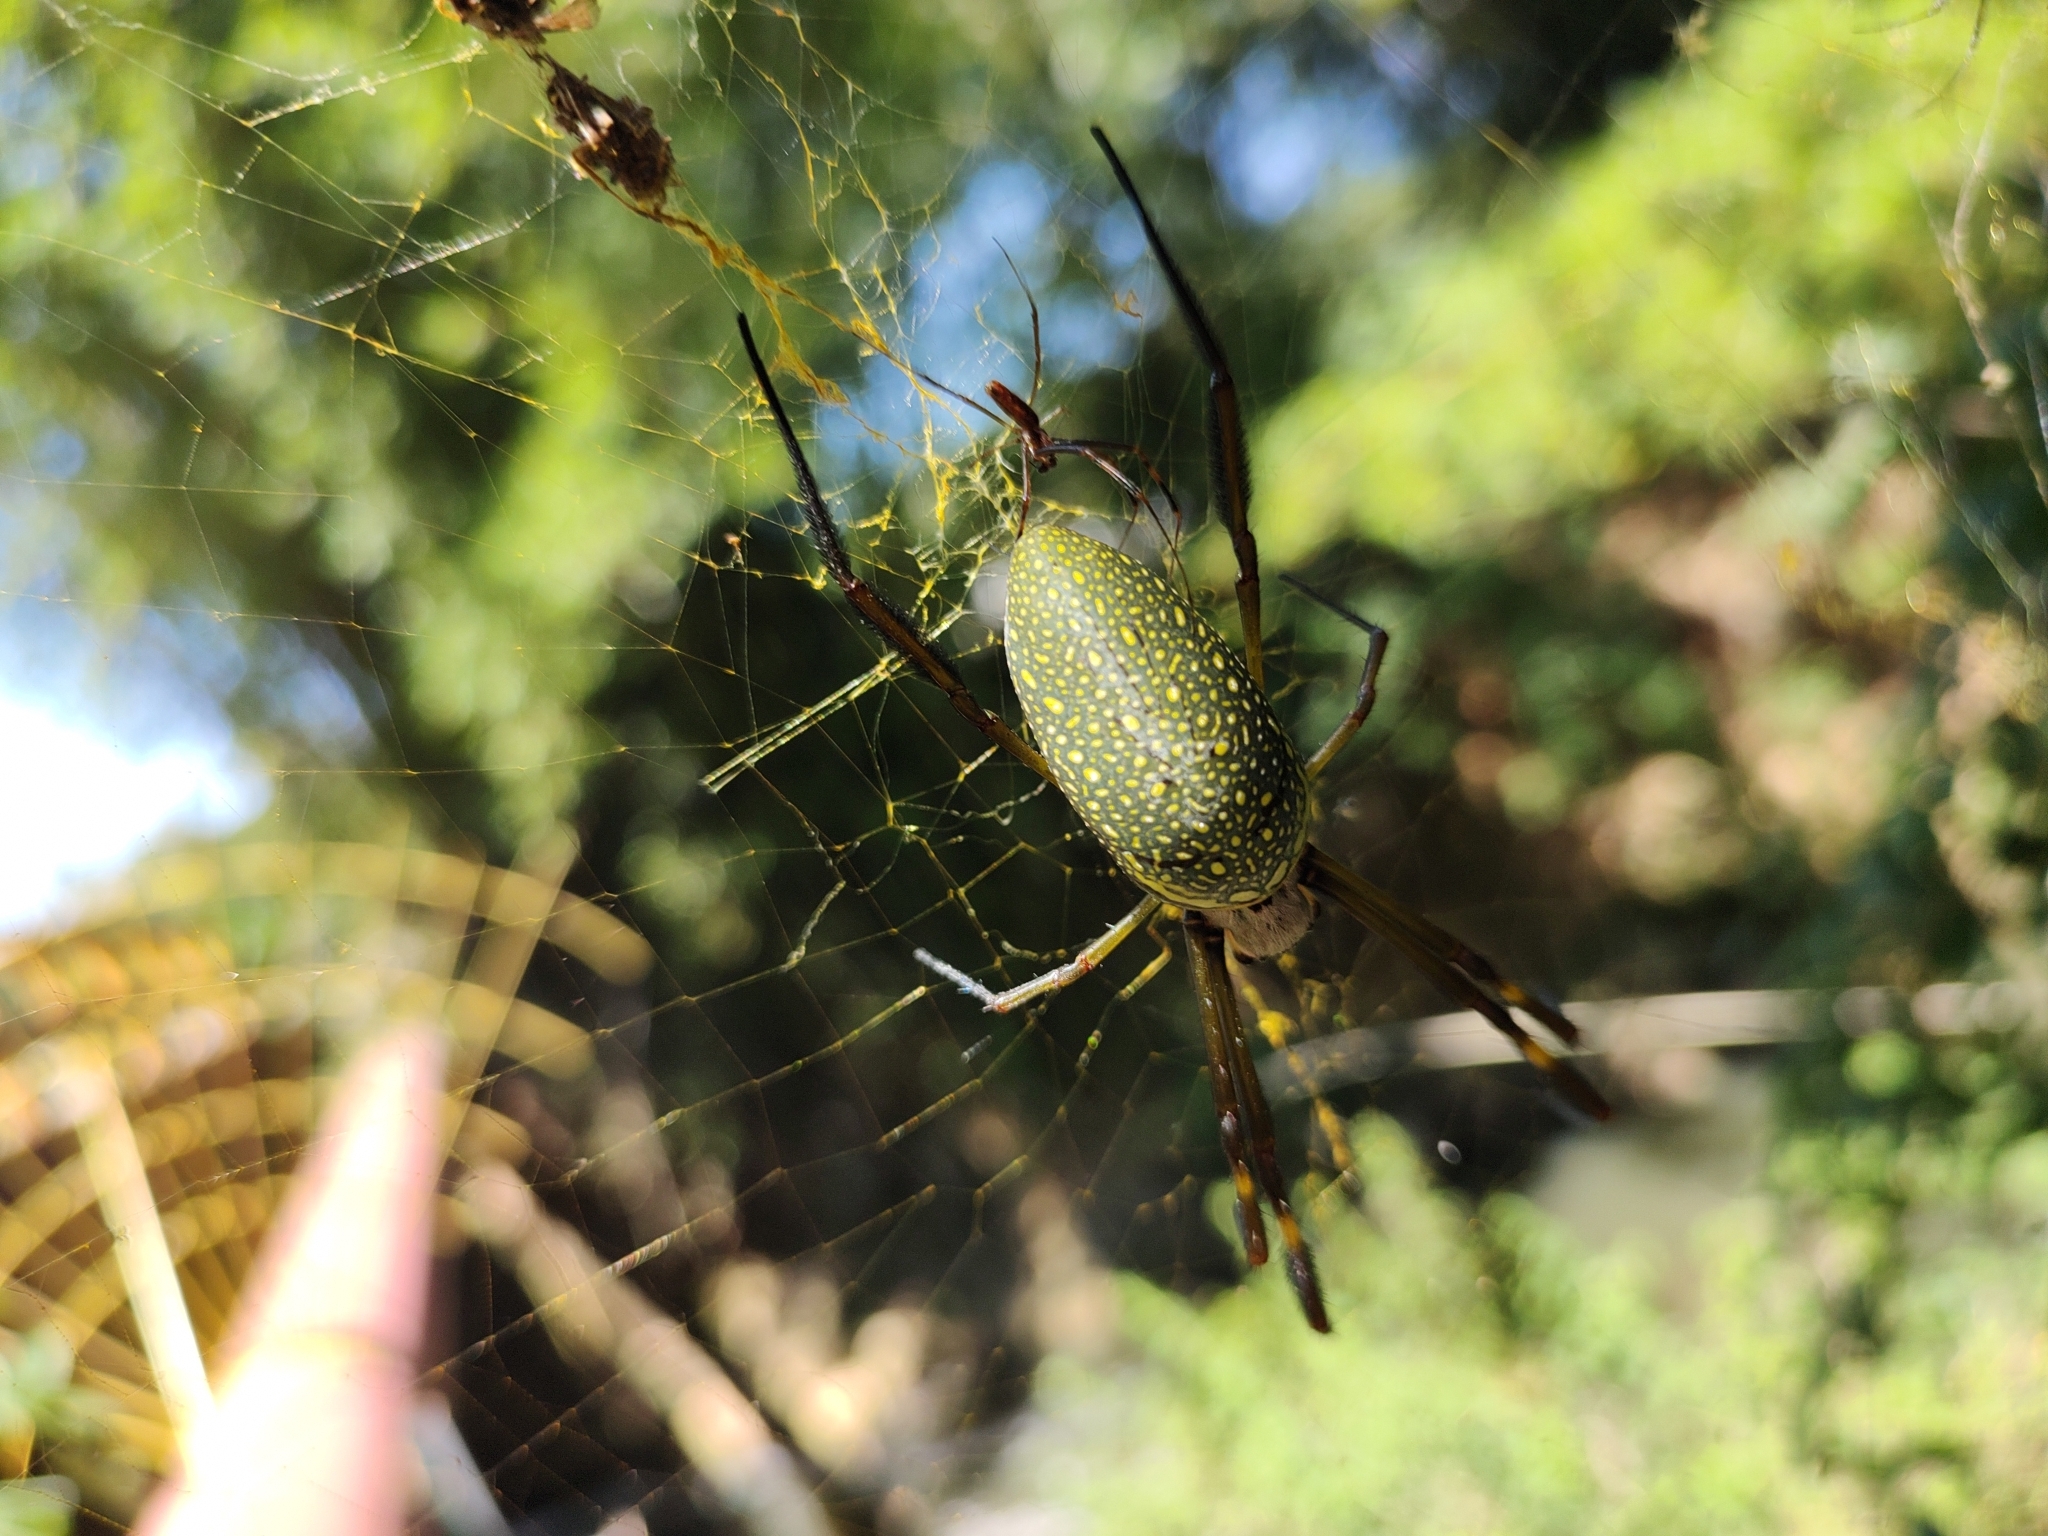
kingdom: Animalia
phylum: Arthropoda
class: Arachnida
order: Araneae
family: Araneidae
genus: Trichonephila
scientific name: Trichonephila clavipes
